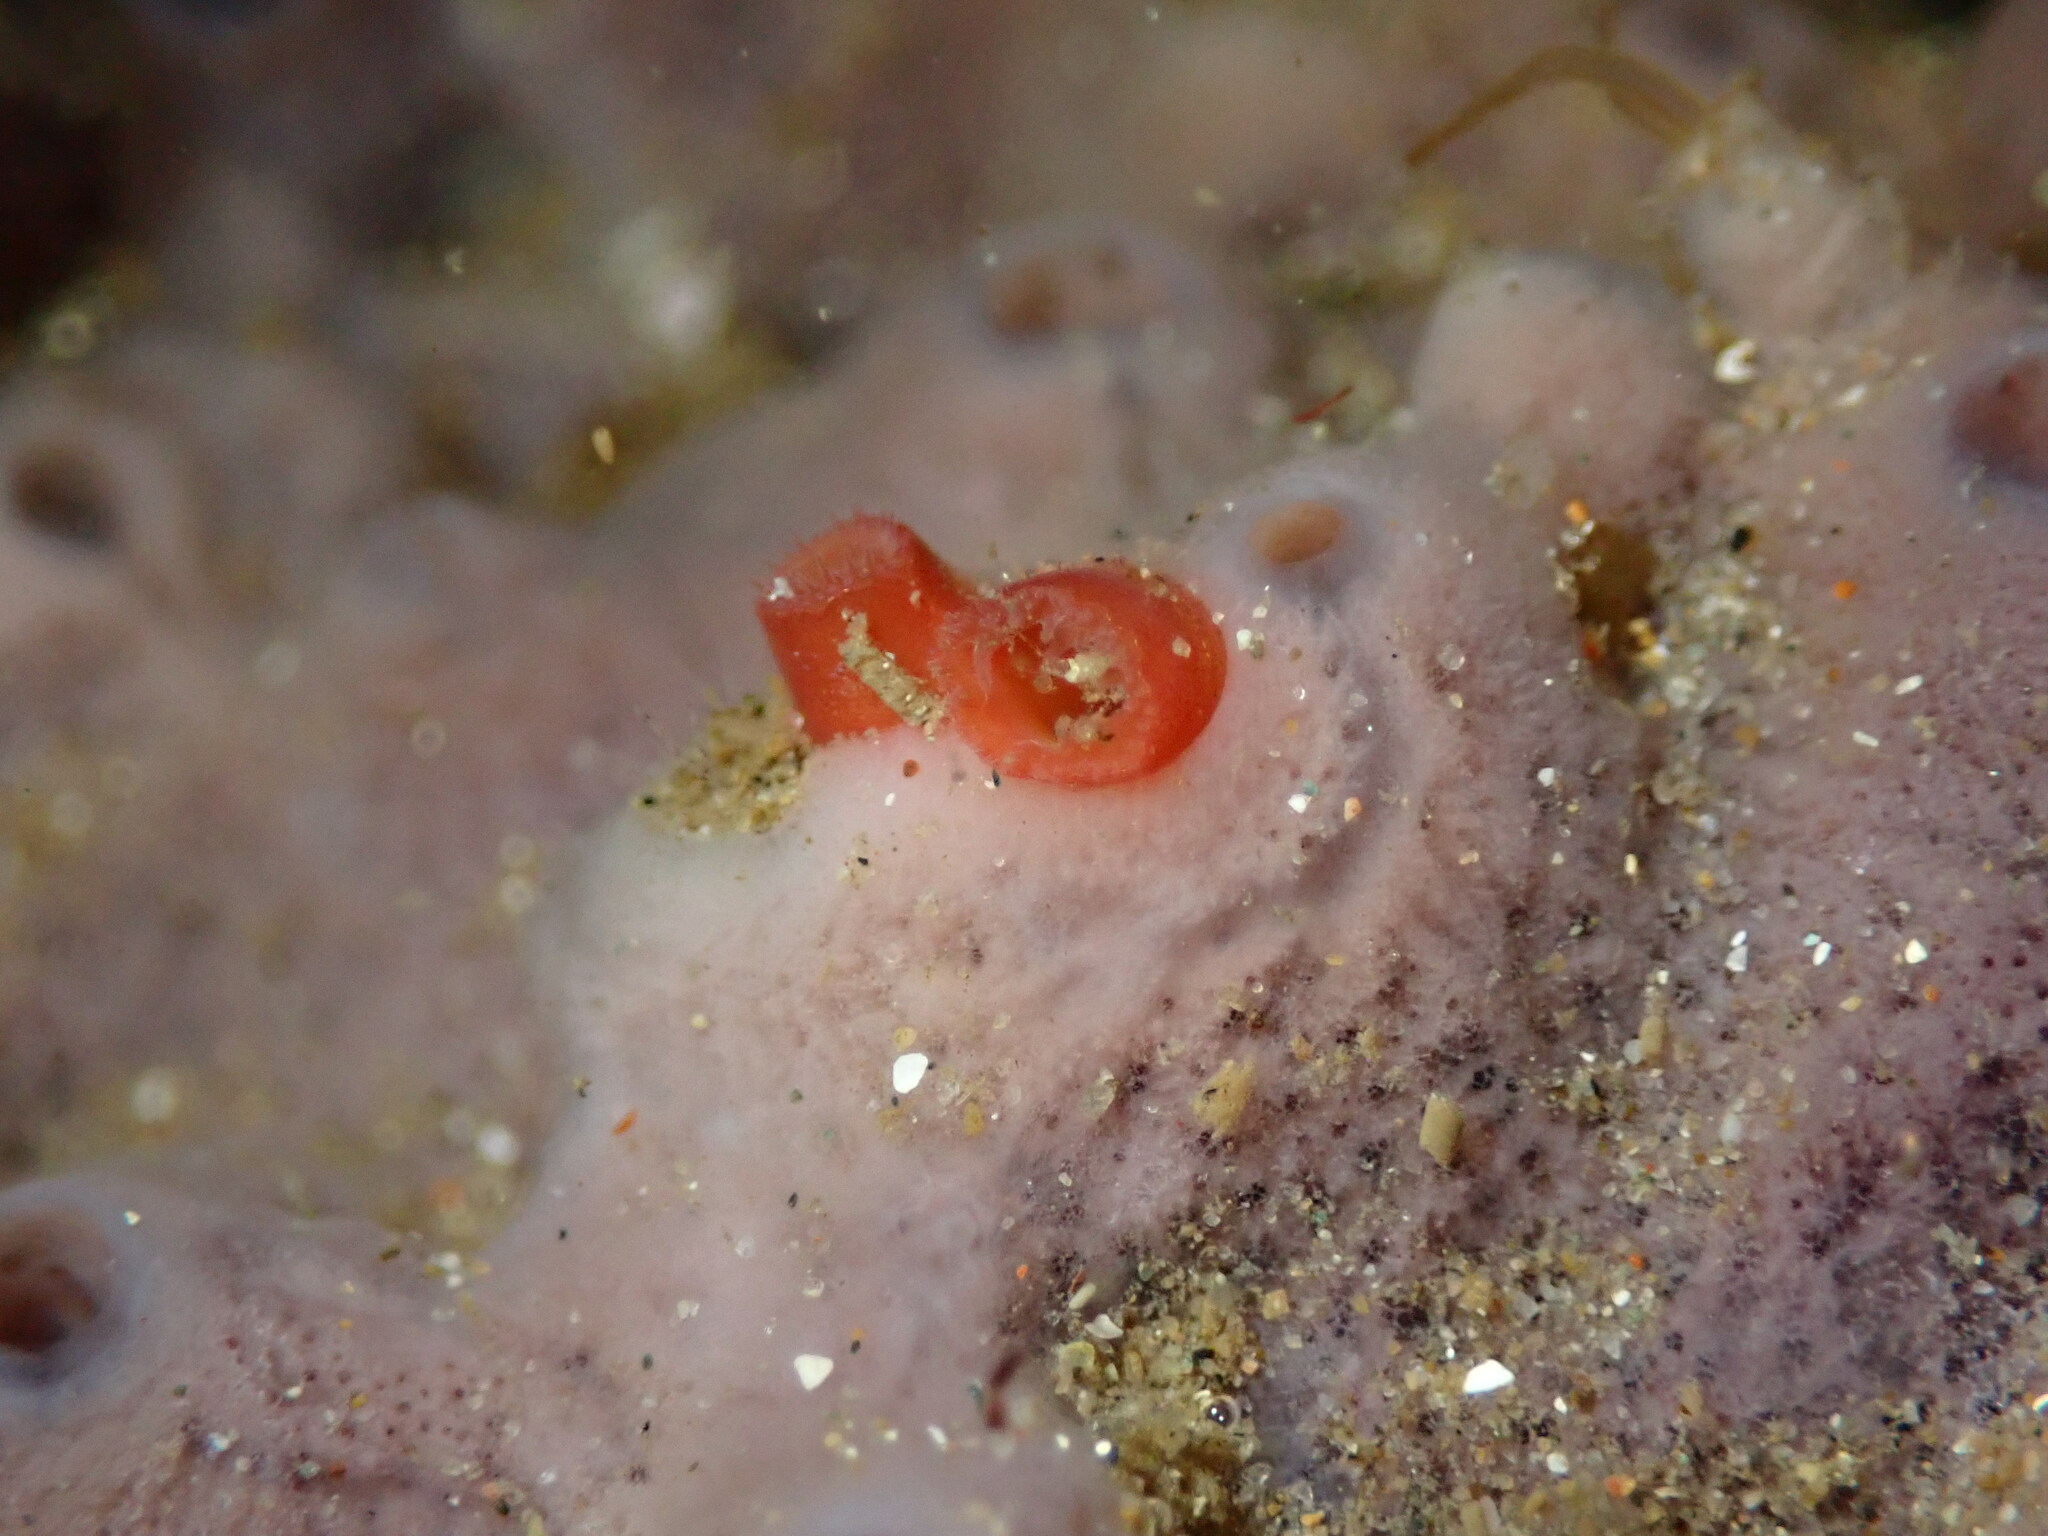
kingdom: Animalia
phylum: Mollusca
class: Bivalvia
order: Adapedonta
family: Hiatellidae
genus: Hiatella
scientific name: Hiatella arctica
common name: Arctic hiatella
